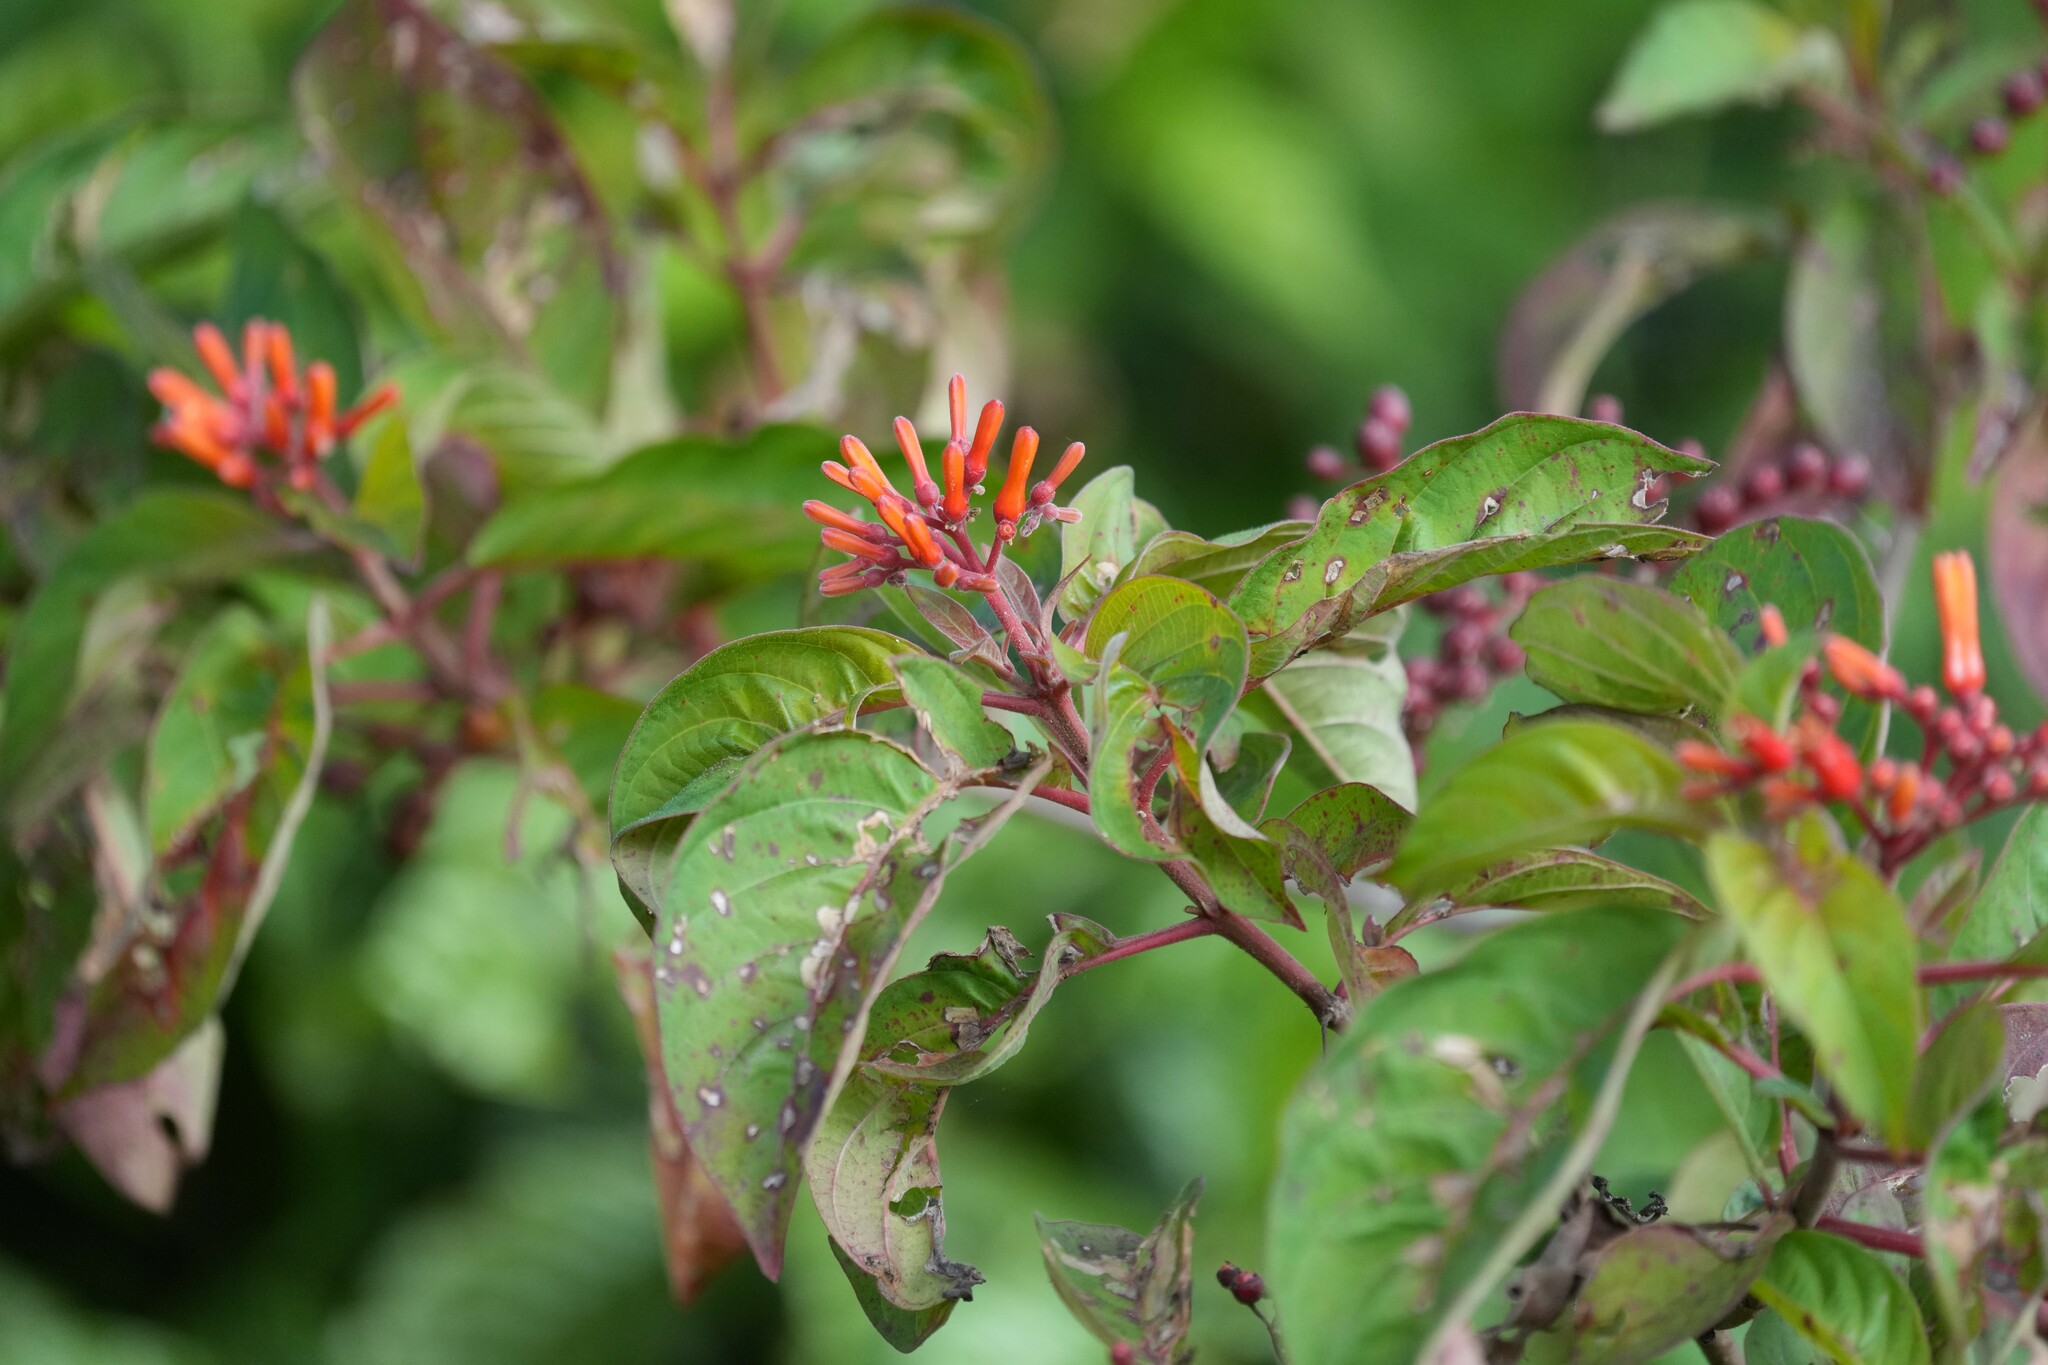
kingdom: Plantae
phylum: Tracheophyta
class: Magnoliopsida
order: Gentianales
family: Rubiaceae
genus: Hamelia
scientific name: Hamelia patens
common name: Redhead
